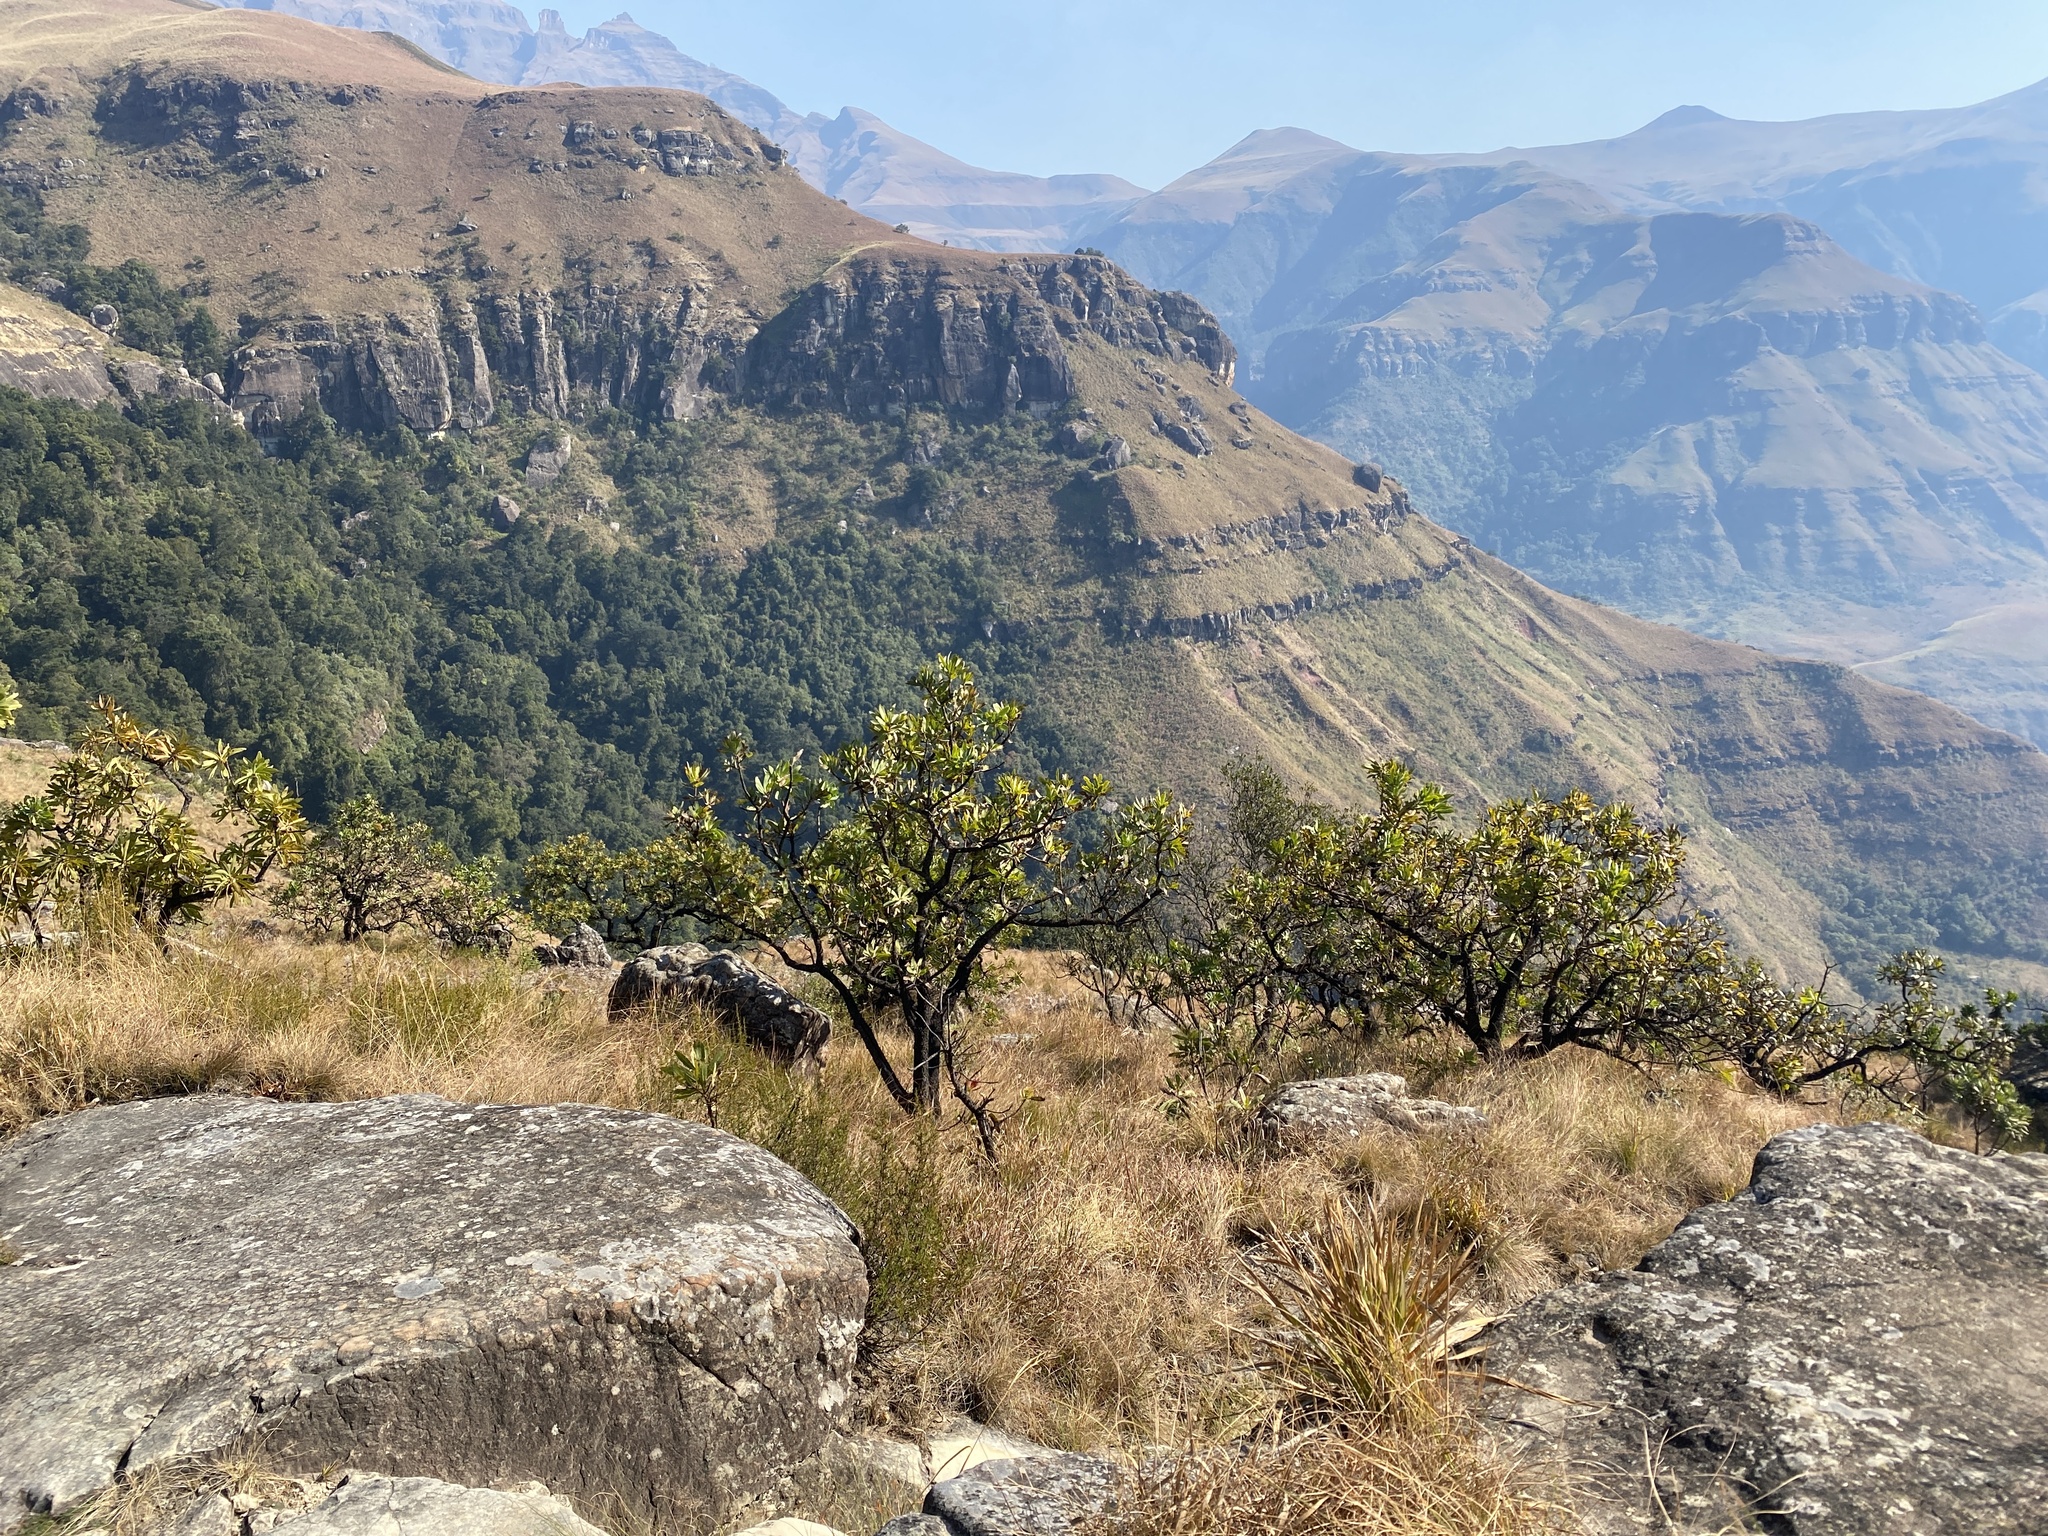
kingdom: Plantae
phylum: Tracheophyta
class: Magnoliopsida
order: Proteales
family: Proteaceae
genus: Protea
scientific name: Protea caffra
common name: Common sugarbush
